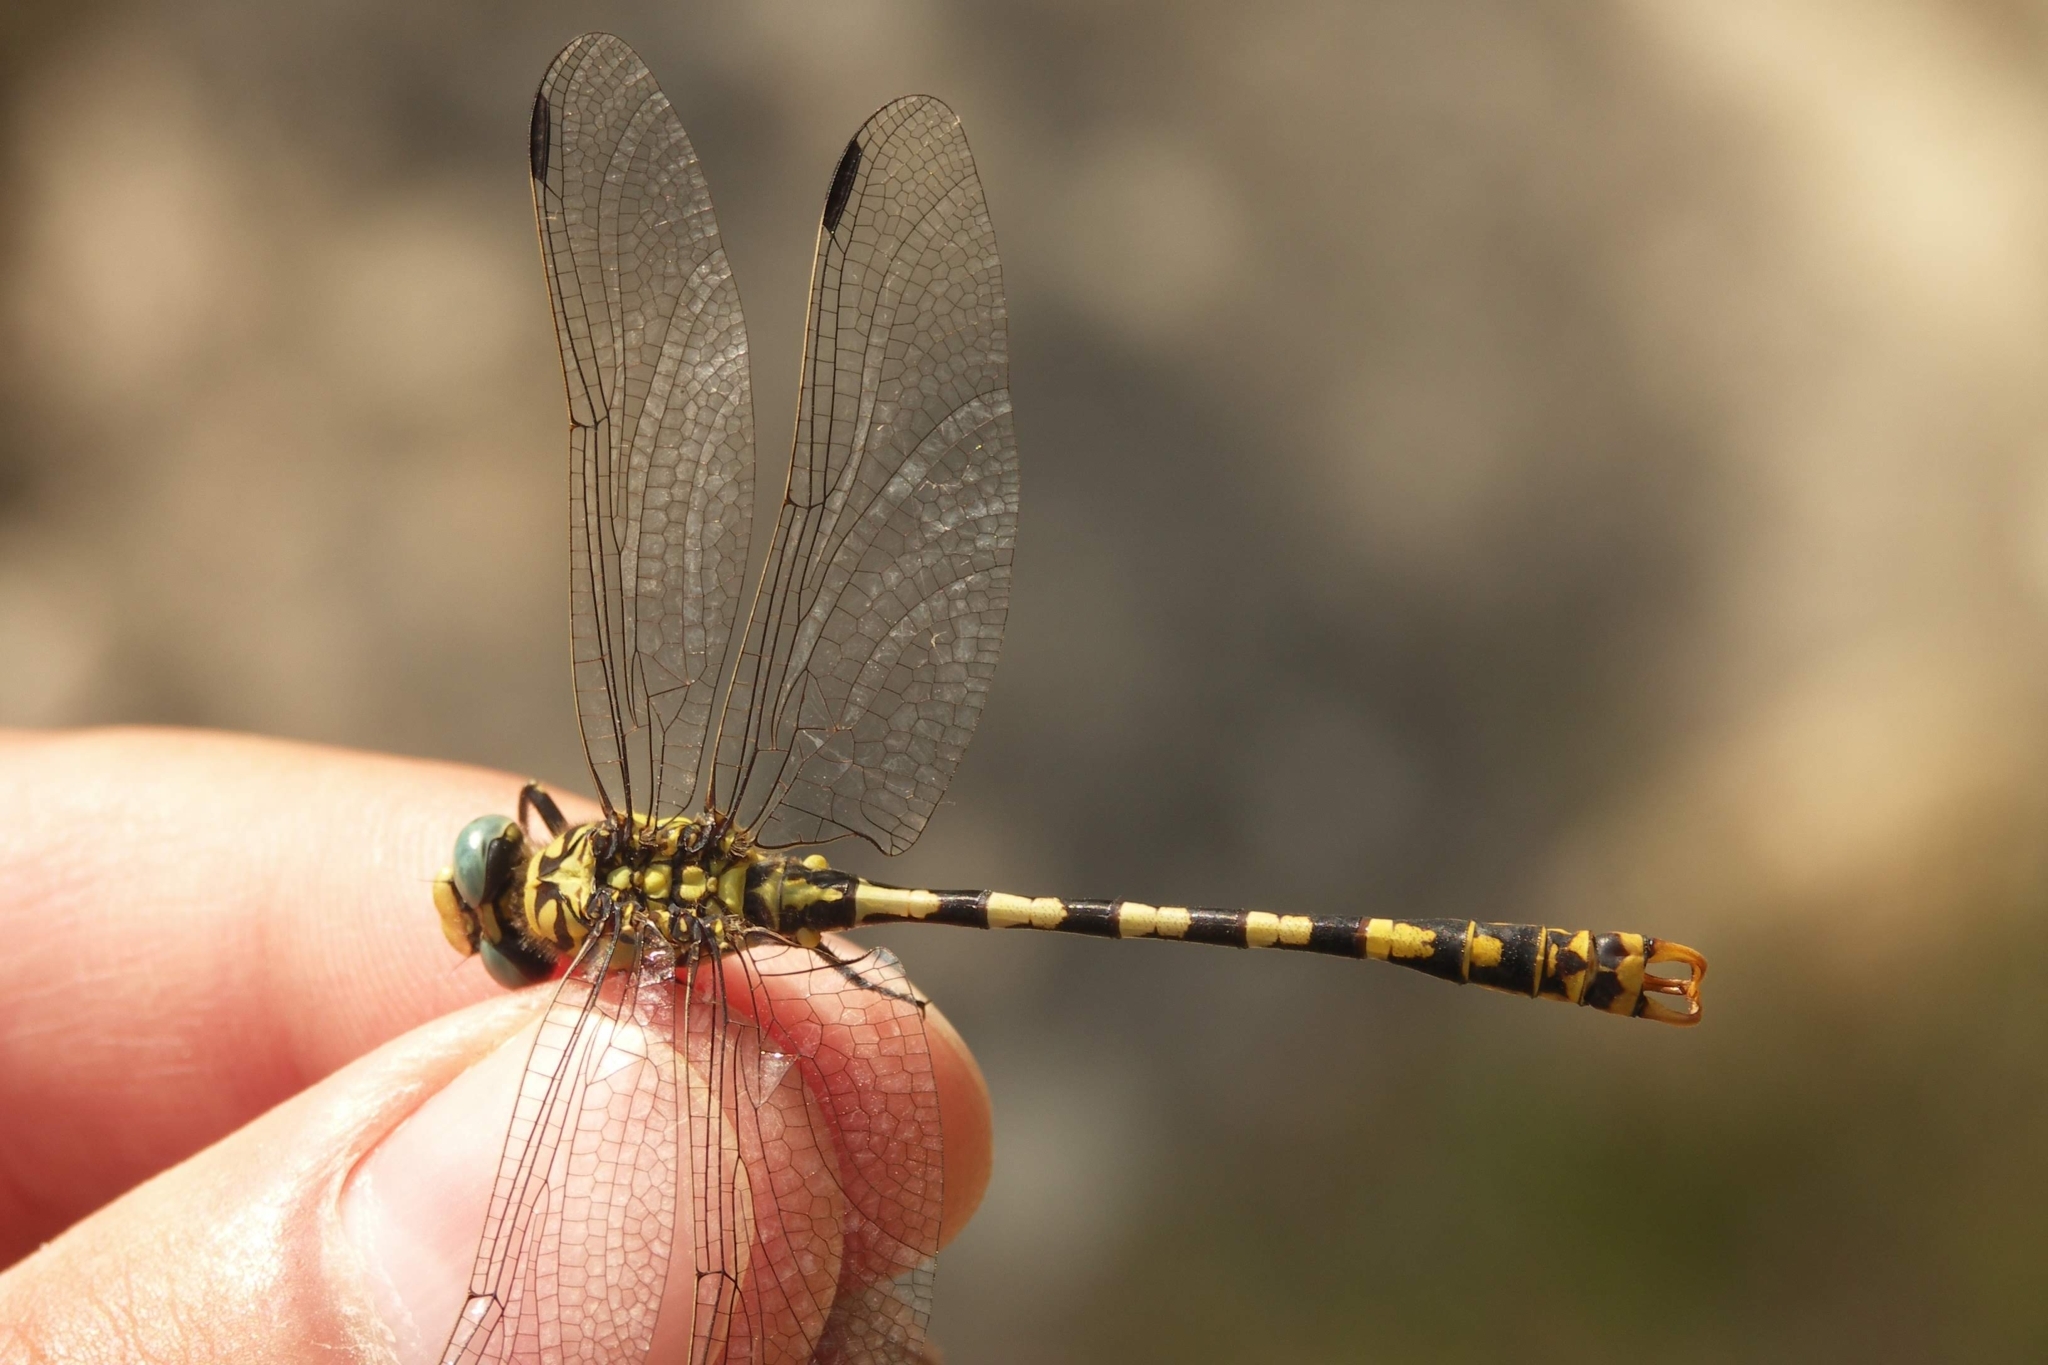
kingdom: Animalia
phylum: Arthropoda
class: Insecta
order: Odonata
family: Gomphidae
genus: Onychogomphus
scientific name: Onychogomphus forcipatus
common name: Small pincertail
